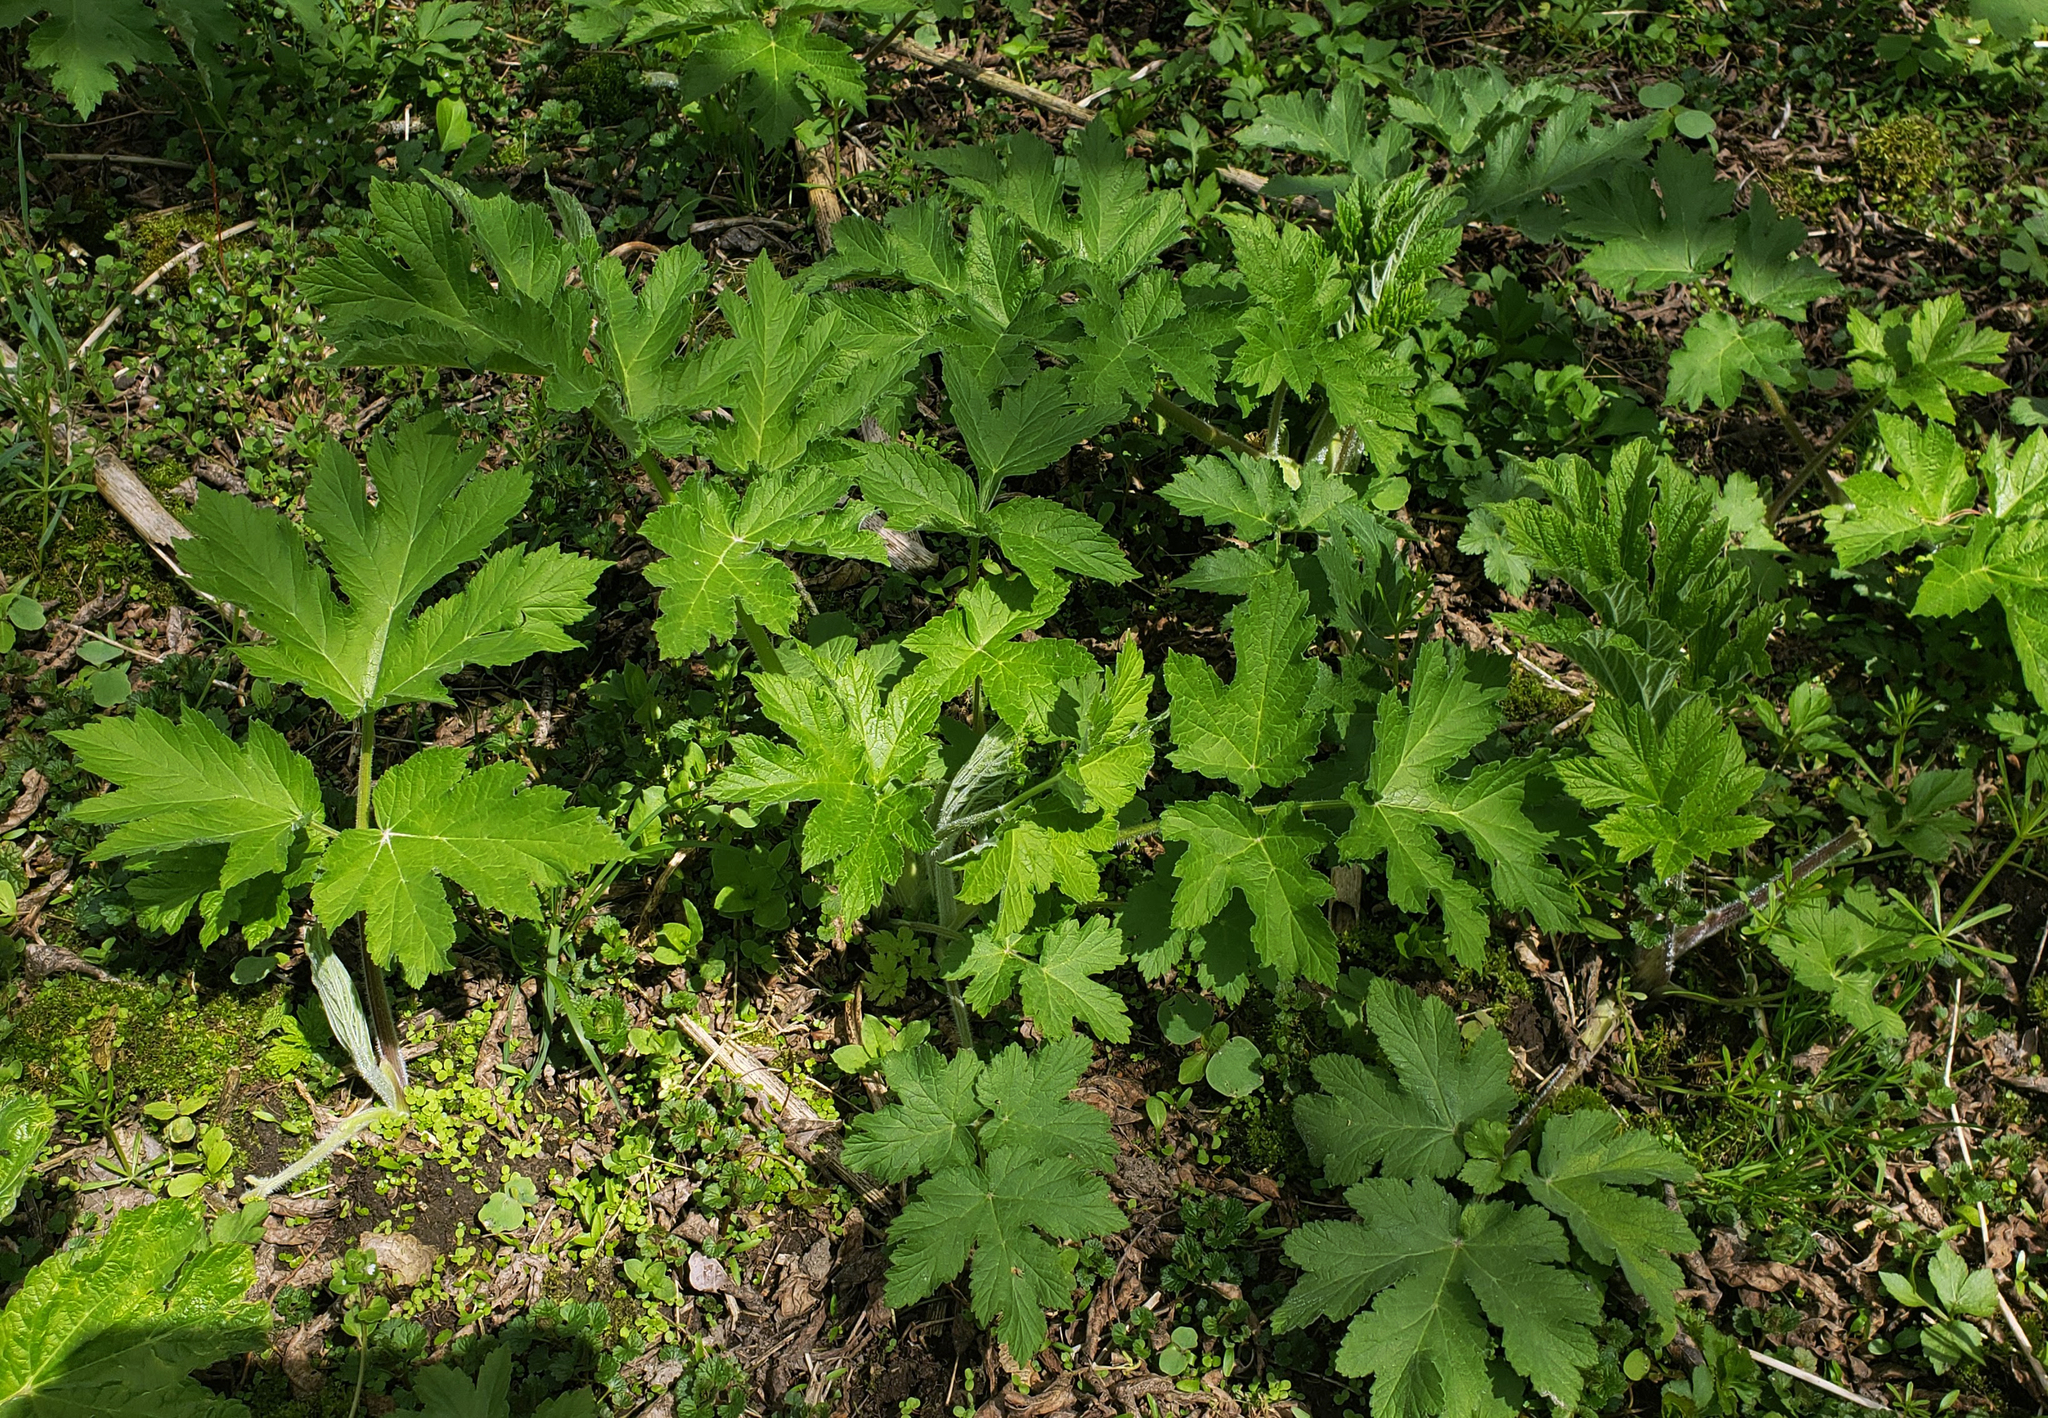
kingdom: Plantae
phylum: Tracheophyta
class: Magnoliopsida
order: Apiales
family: Apiaceae
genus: Heracleum
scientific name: Heracleum maximum
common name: American cow parsnip
